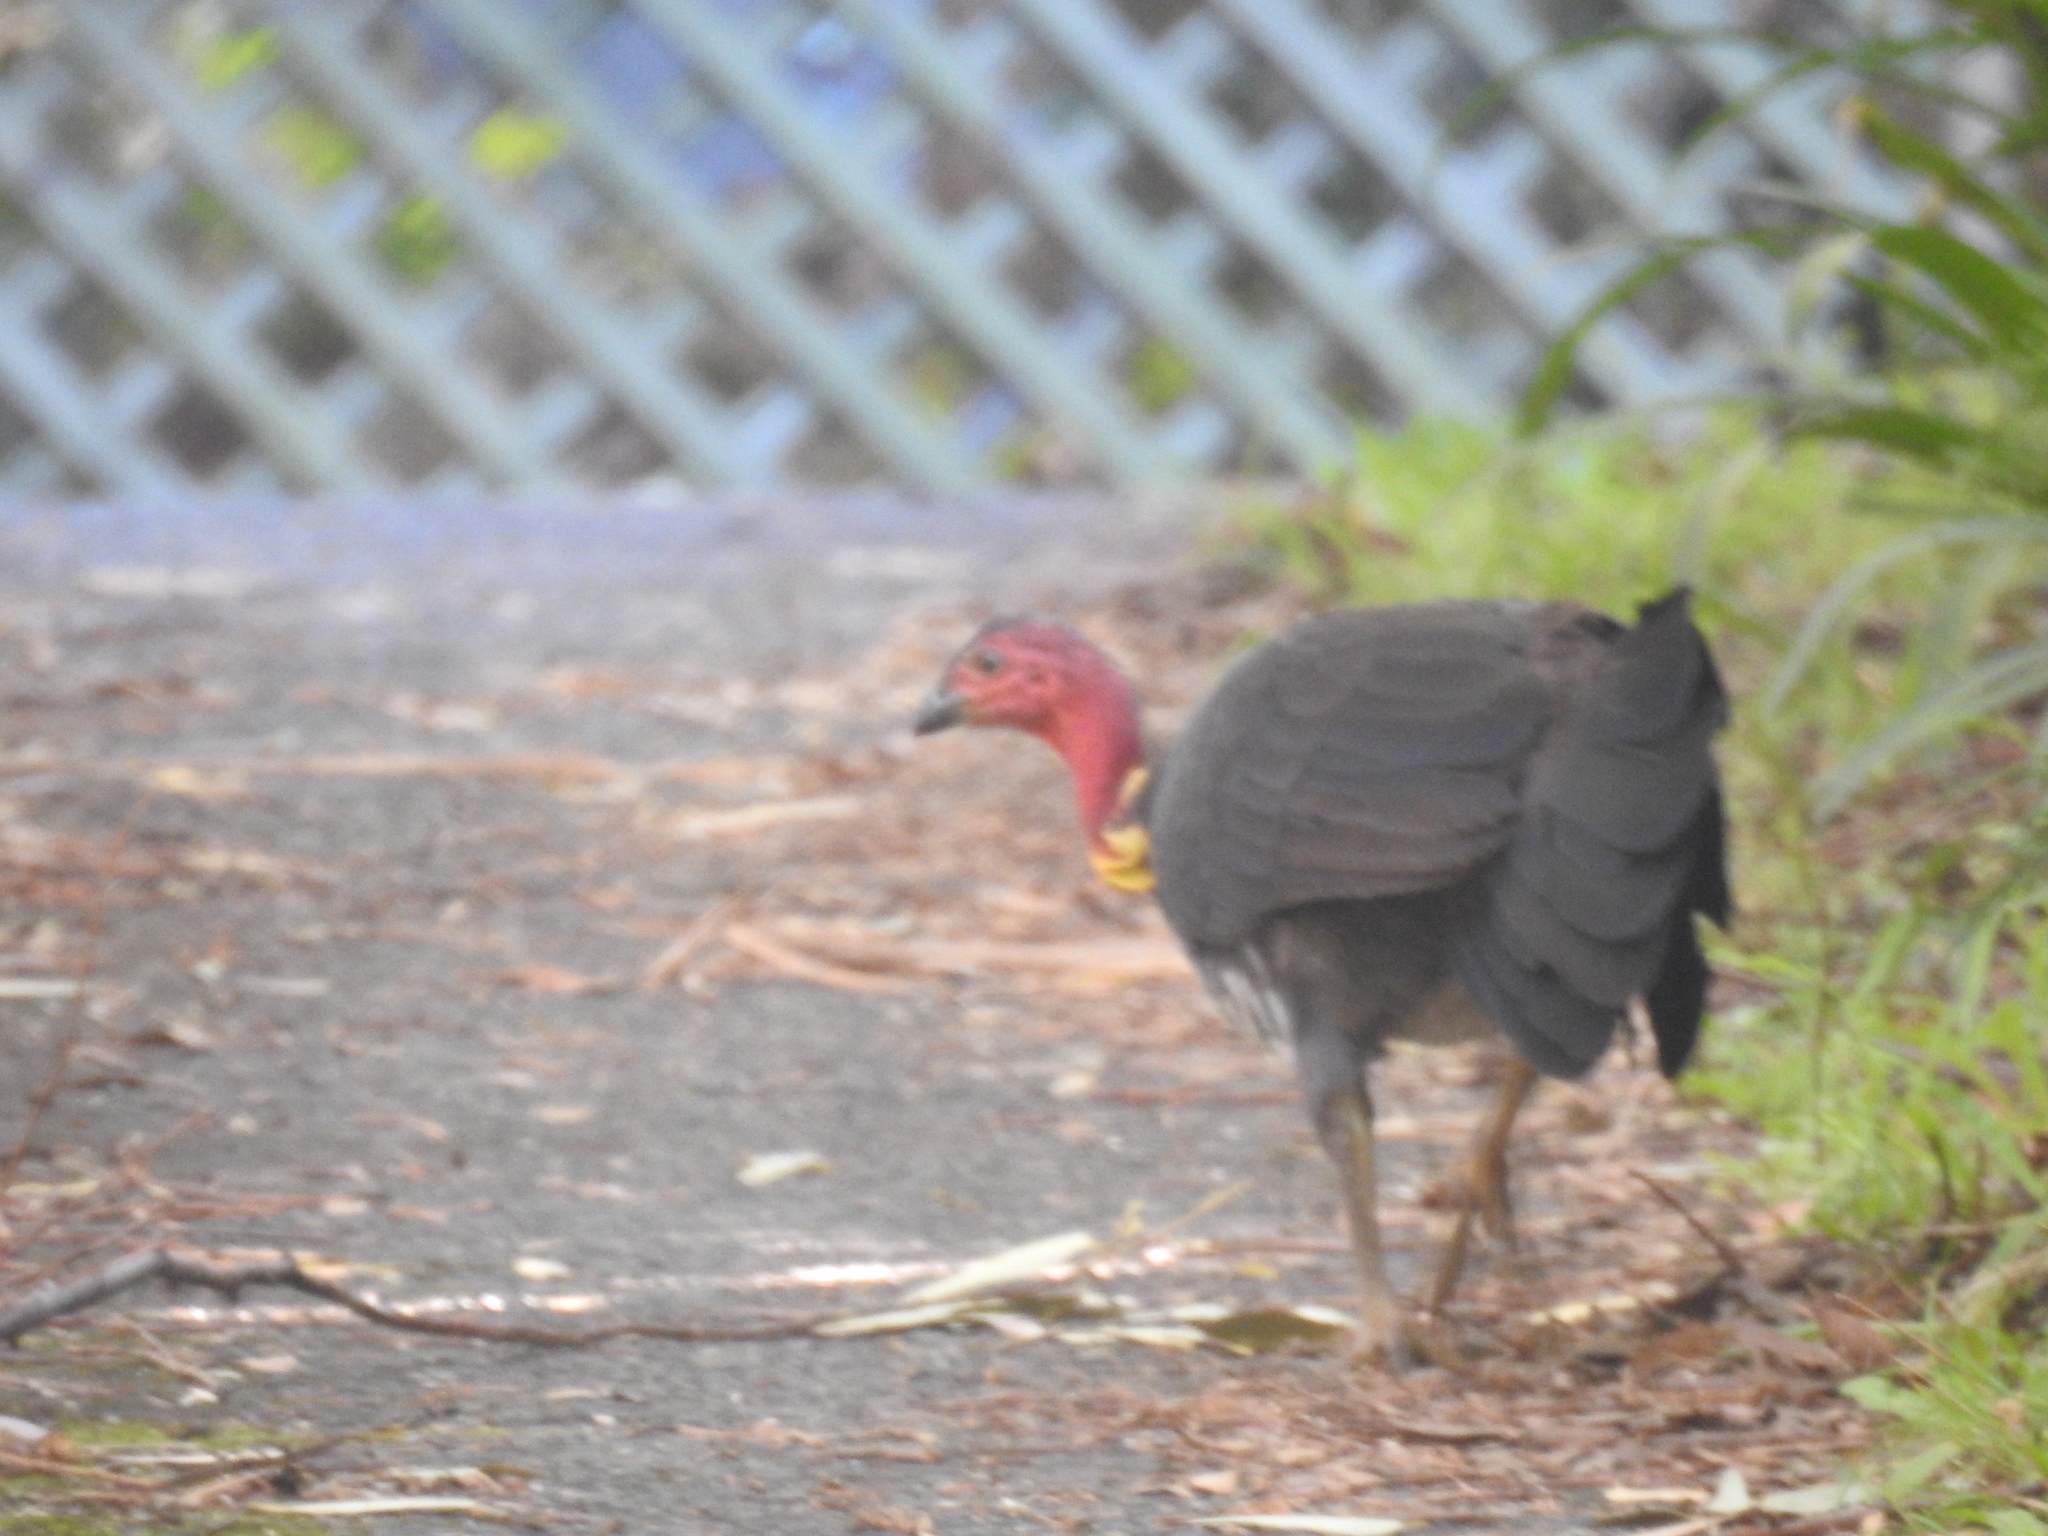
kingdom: Animalia
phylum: Chordata
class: Aves
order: Galliformes
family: Megapodiidae
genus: Alectura
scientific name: Alectura lathami
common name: Australian brushturkey
